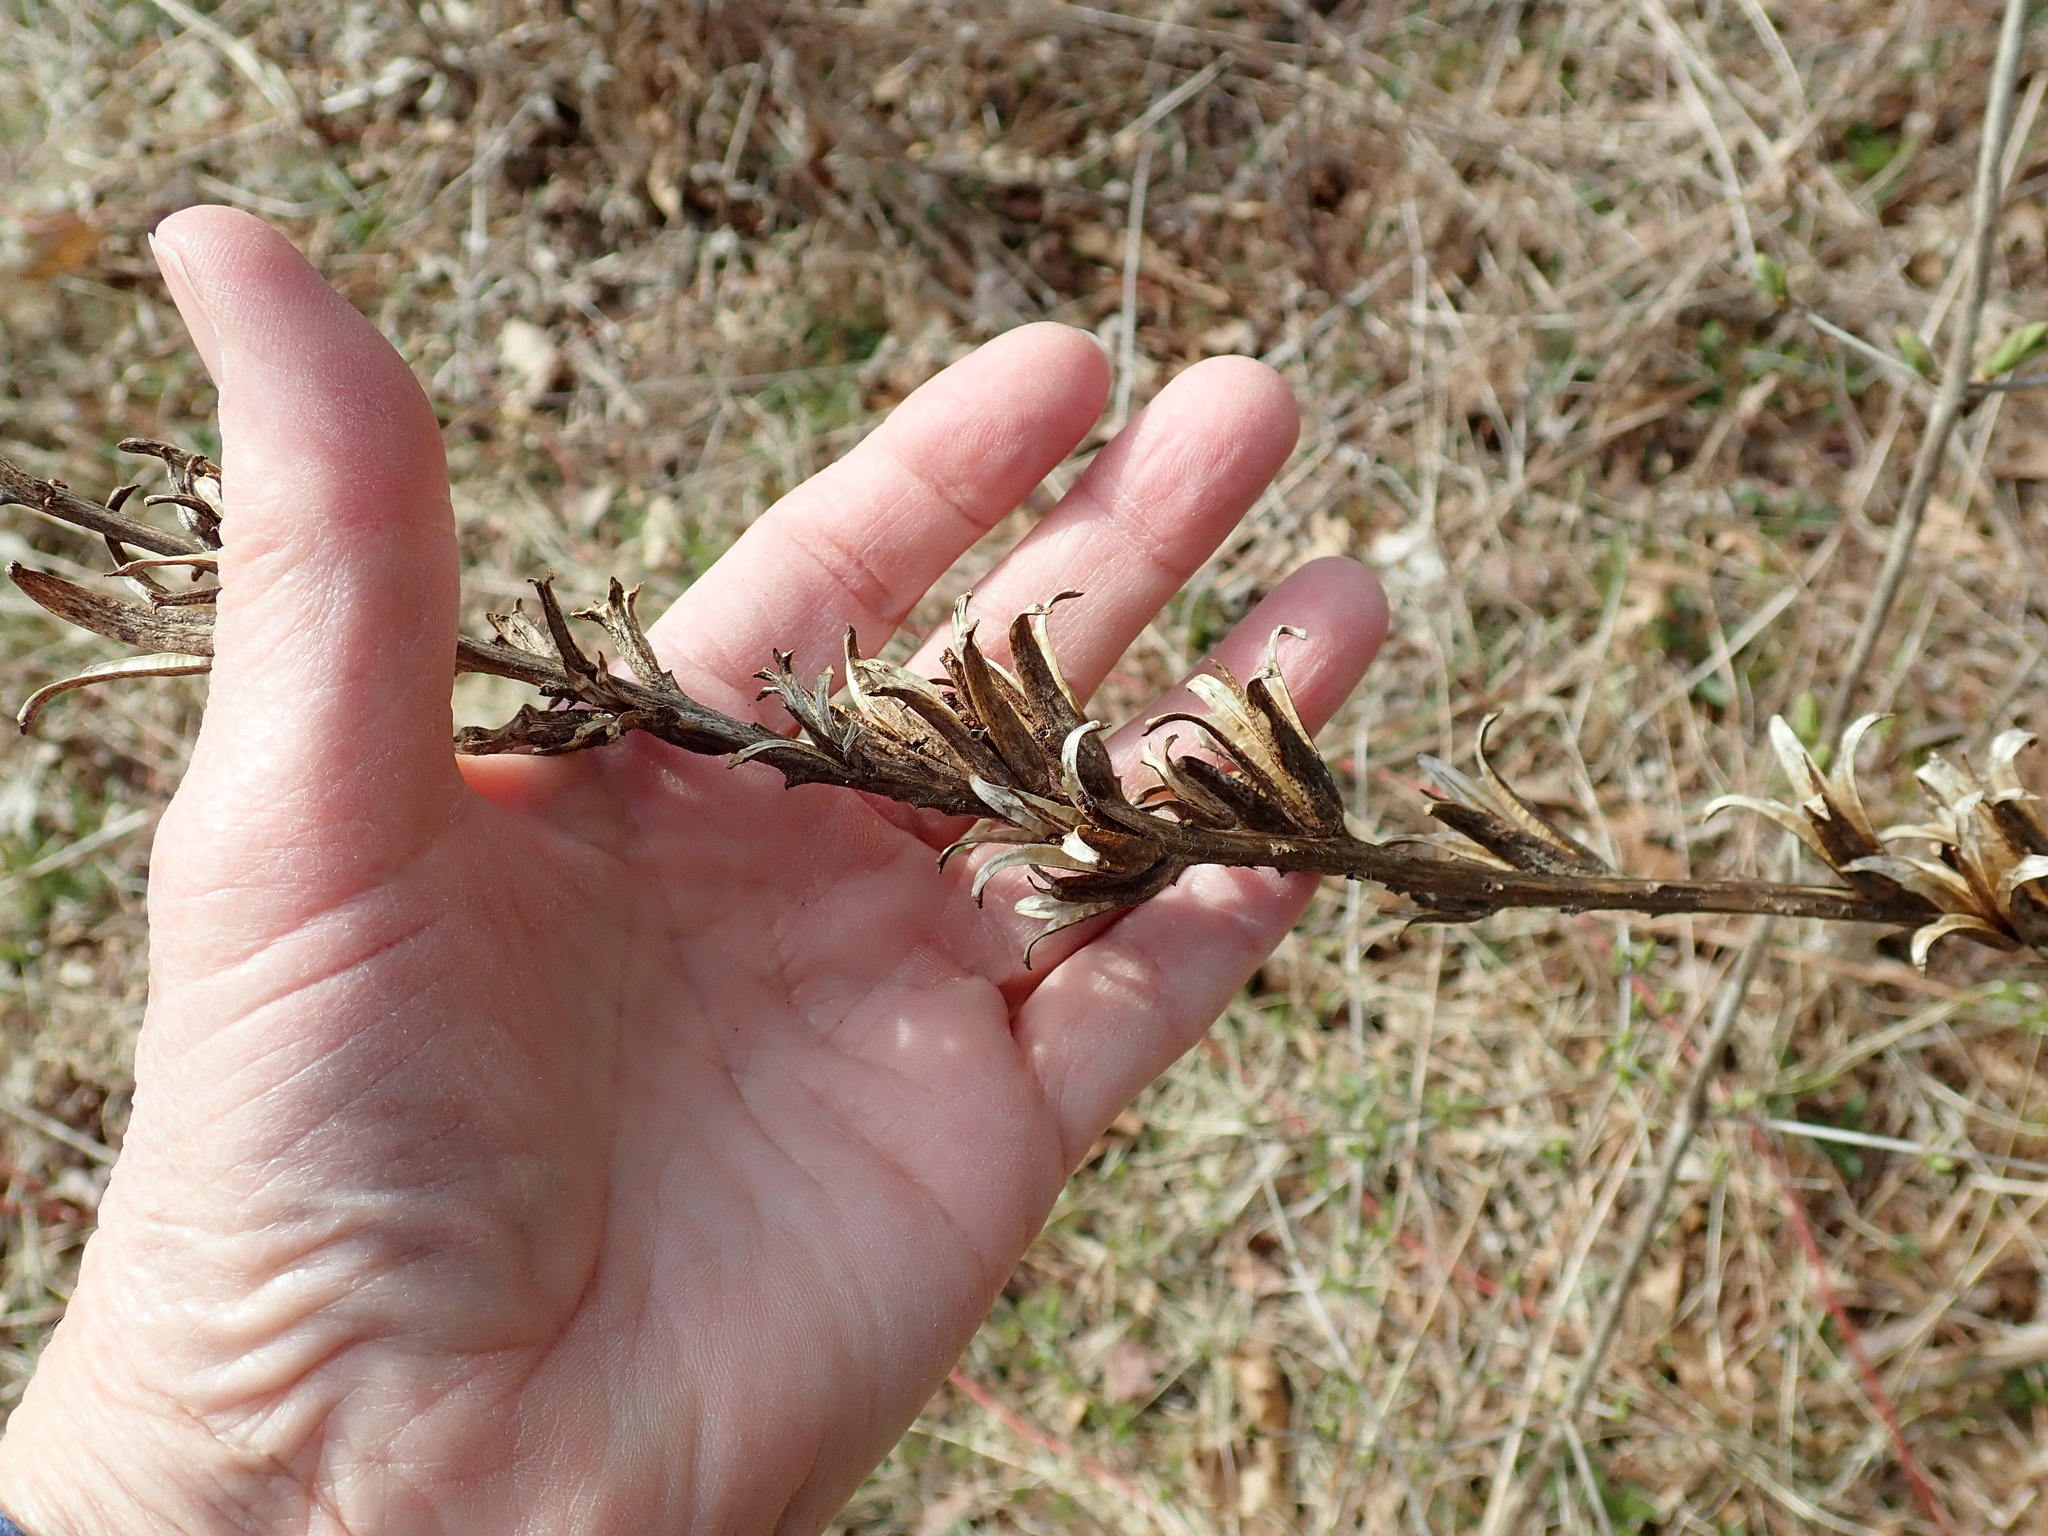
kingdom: Plantae
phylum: Tracheophyta
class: Magnoliopsida
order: Myrtales
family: Onagraceae
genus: Oenothera
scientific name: Oenothera biennis
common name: Common evening-primrose
